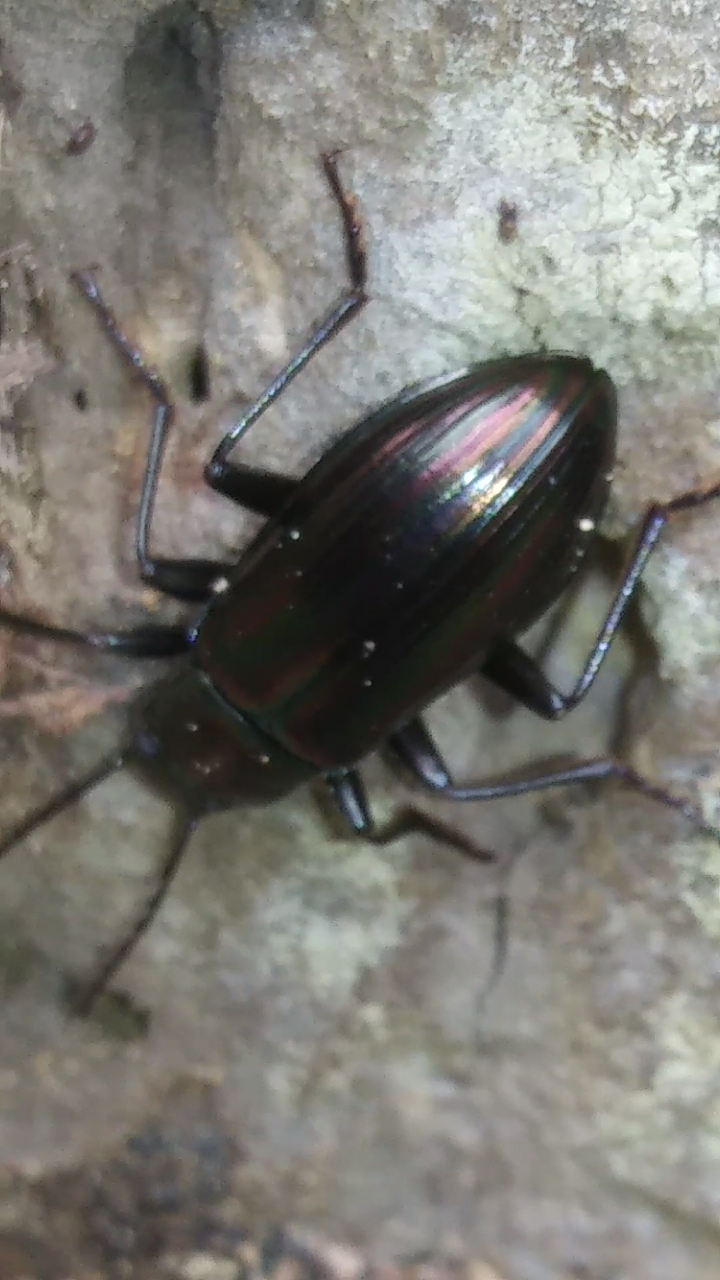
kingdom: Animalia
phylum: Arthropoda
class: Insecta
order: Coleoptera
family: Tenebrionidae
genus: Tarpela
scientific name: Tarpela micans
